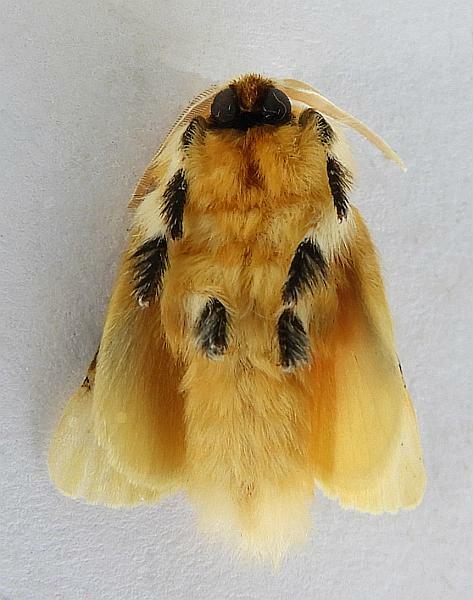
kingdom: Animalia
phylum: Arthropoda
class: Insecta
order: Lepidoptera
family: Megalopygidae
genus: Megalopyge
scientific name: Megalopyge opercularis
